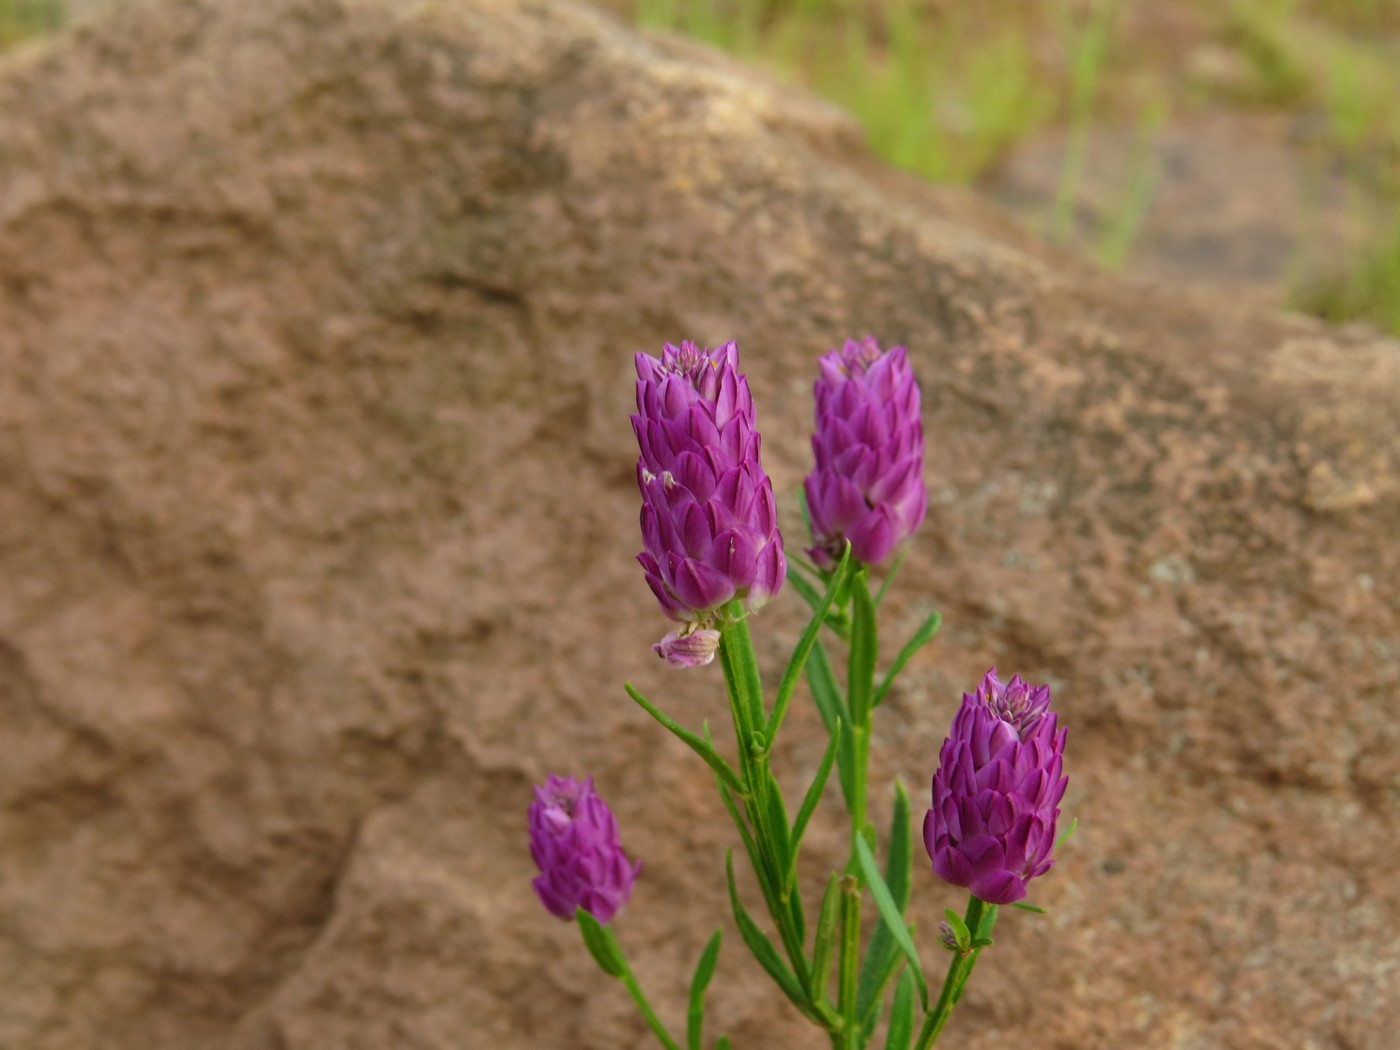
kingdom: Plantae
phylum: Tracheophyta
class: Magnoliopsida
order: Fabales
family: Polygalaceae
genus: Polygala
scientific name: Polygala sanguinea
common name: Blood milkwort
